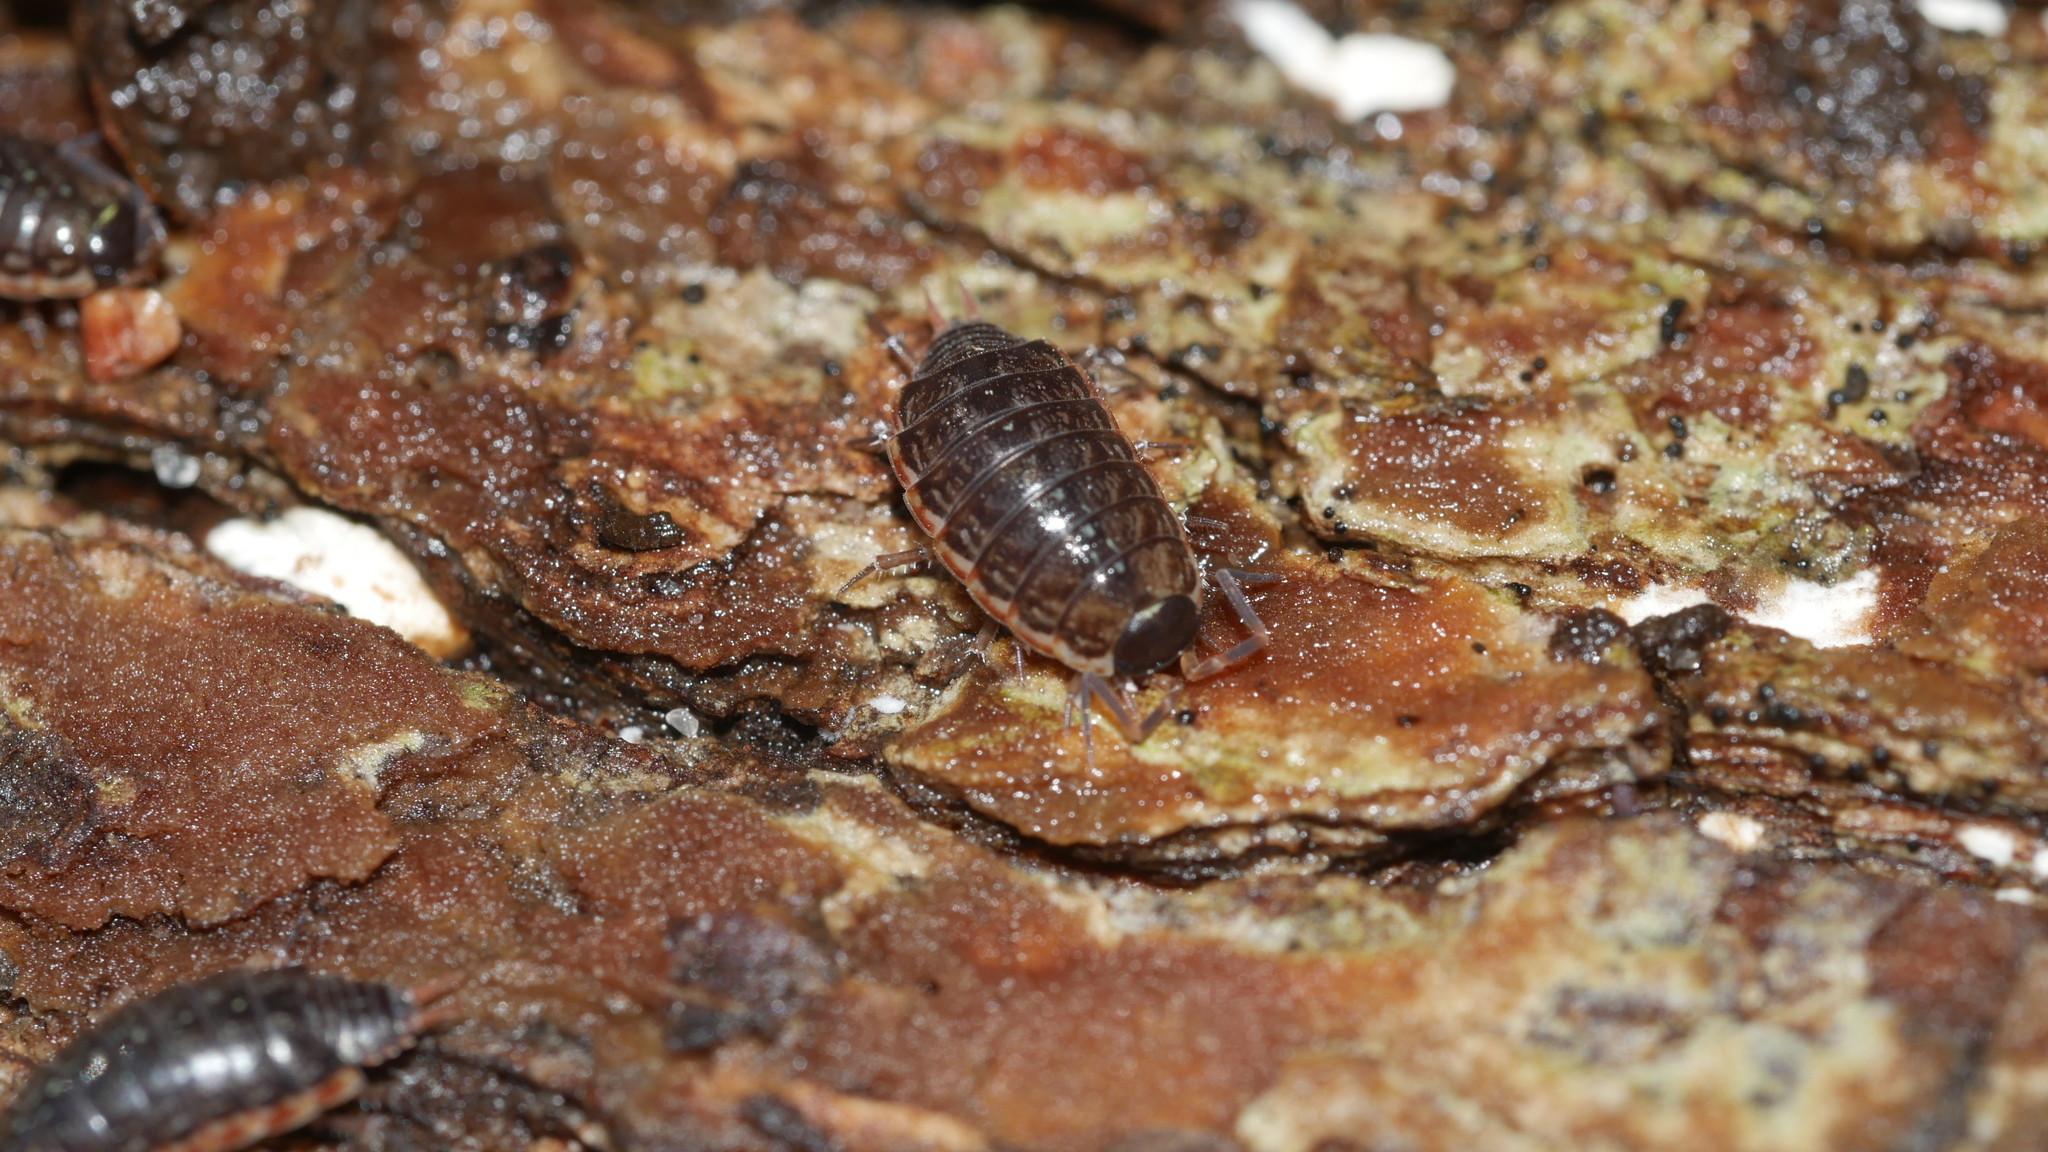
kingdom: Animalia
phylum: Arthropoda
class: Malacostraca
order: Isopoda
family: Philosciidae
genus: Philoscia
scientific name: Philoscia muscorum
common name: Common striped woodlouse
